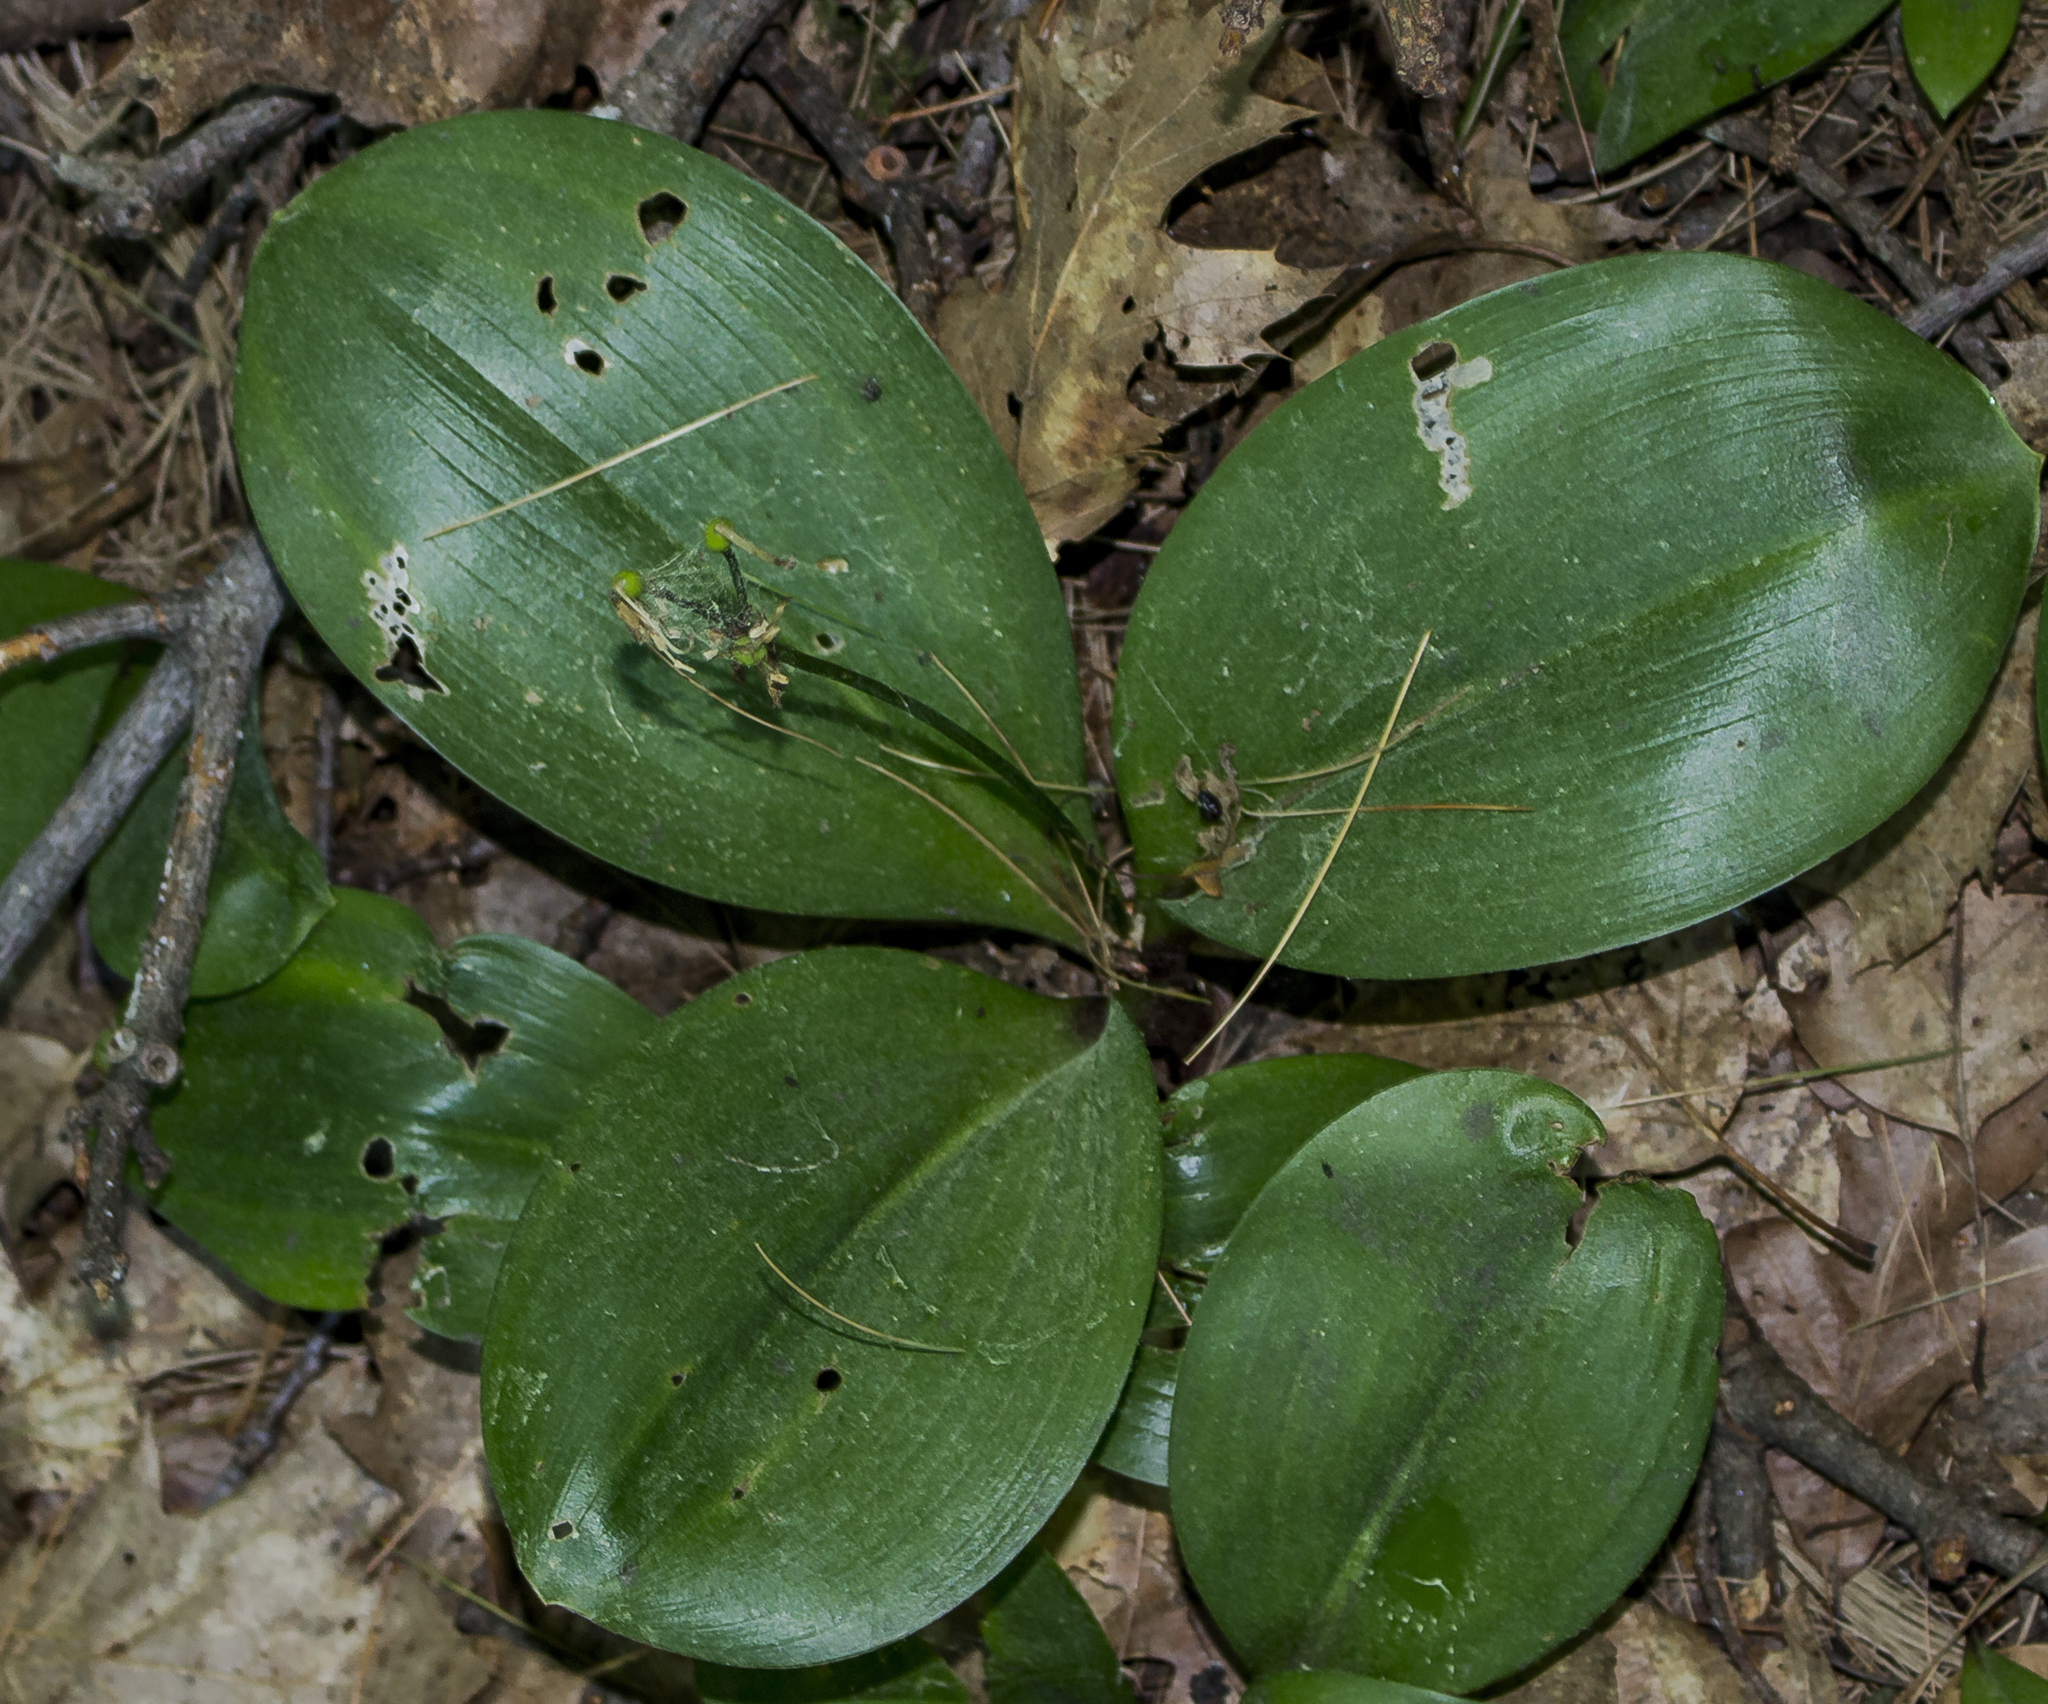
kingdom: Plantae
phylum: Tracheophyta
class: Liliopsida
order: Liliales
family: Liliaceae
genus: Clintonia
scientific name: Clintonia borealis
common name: Yellow clintonia
